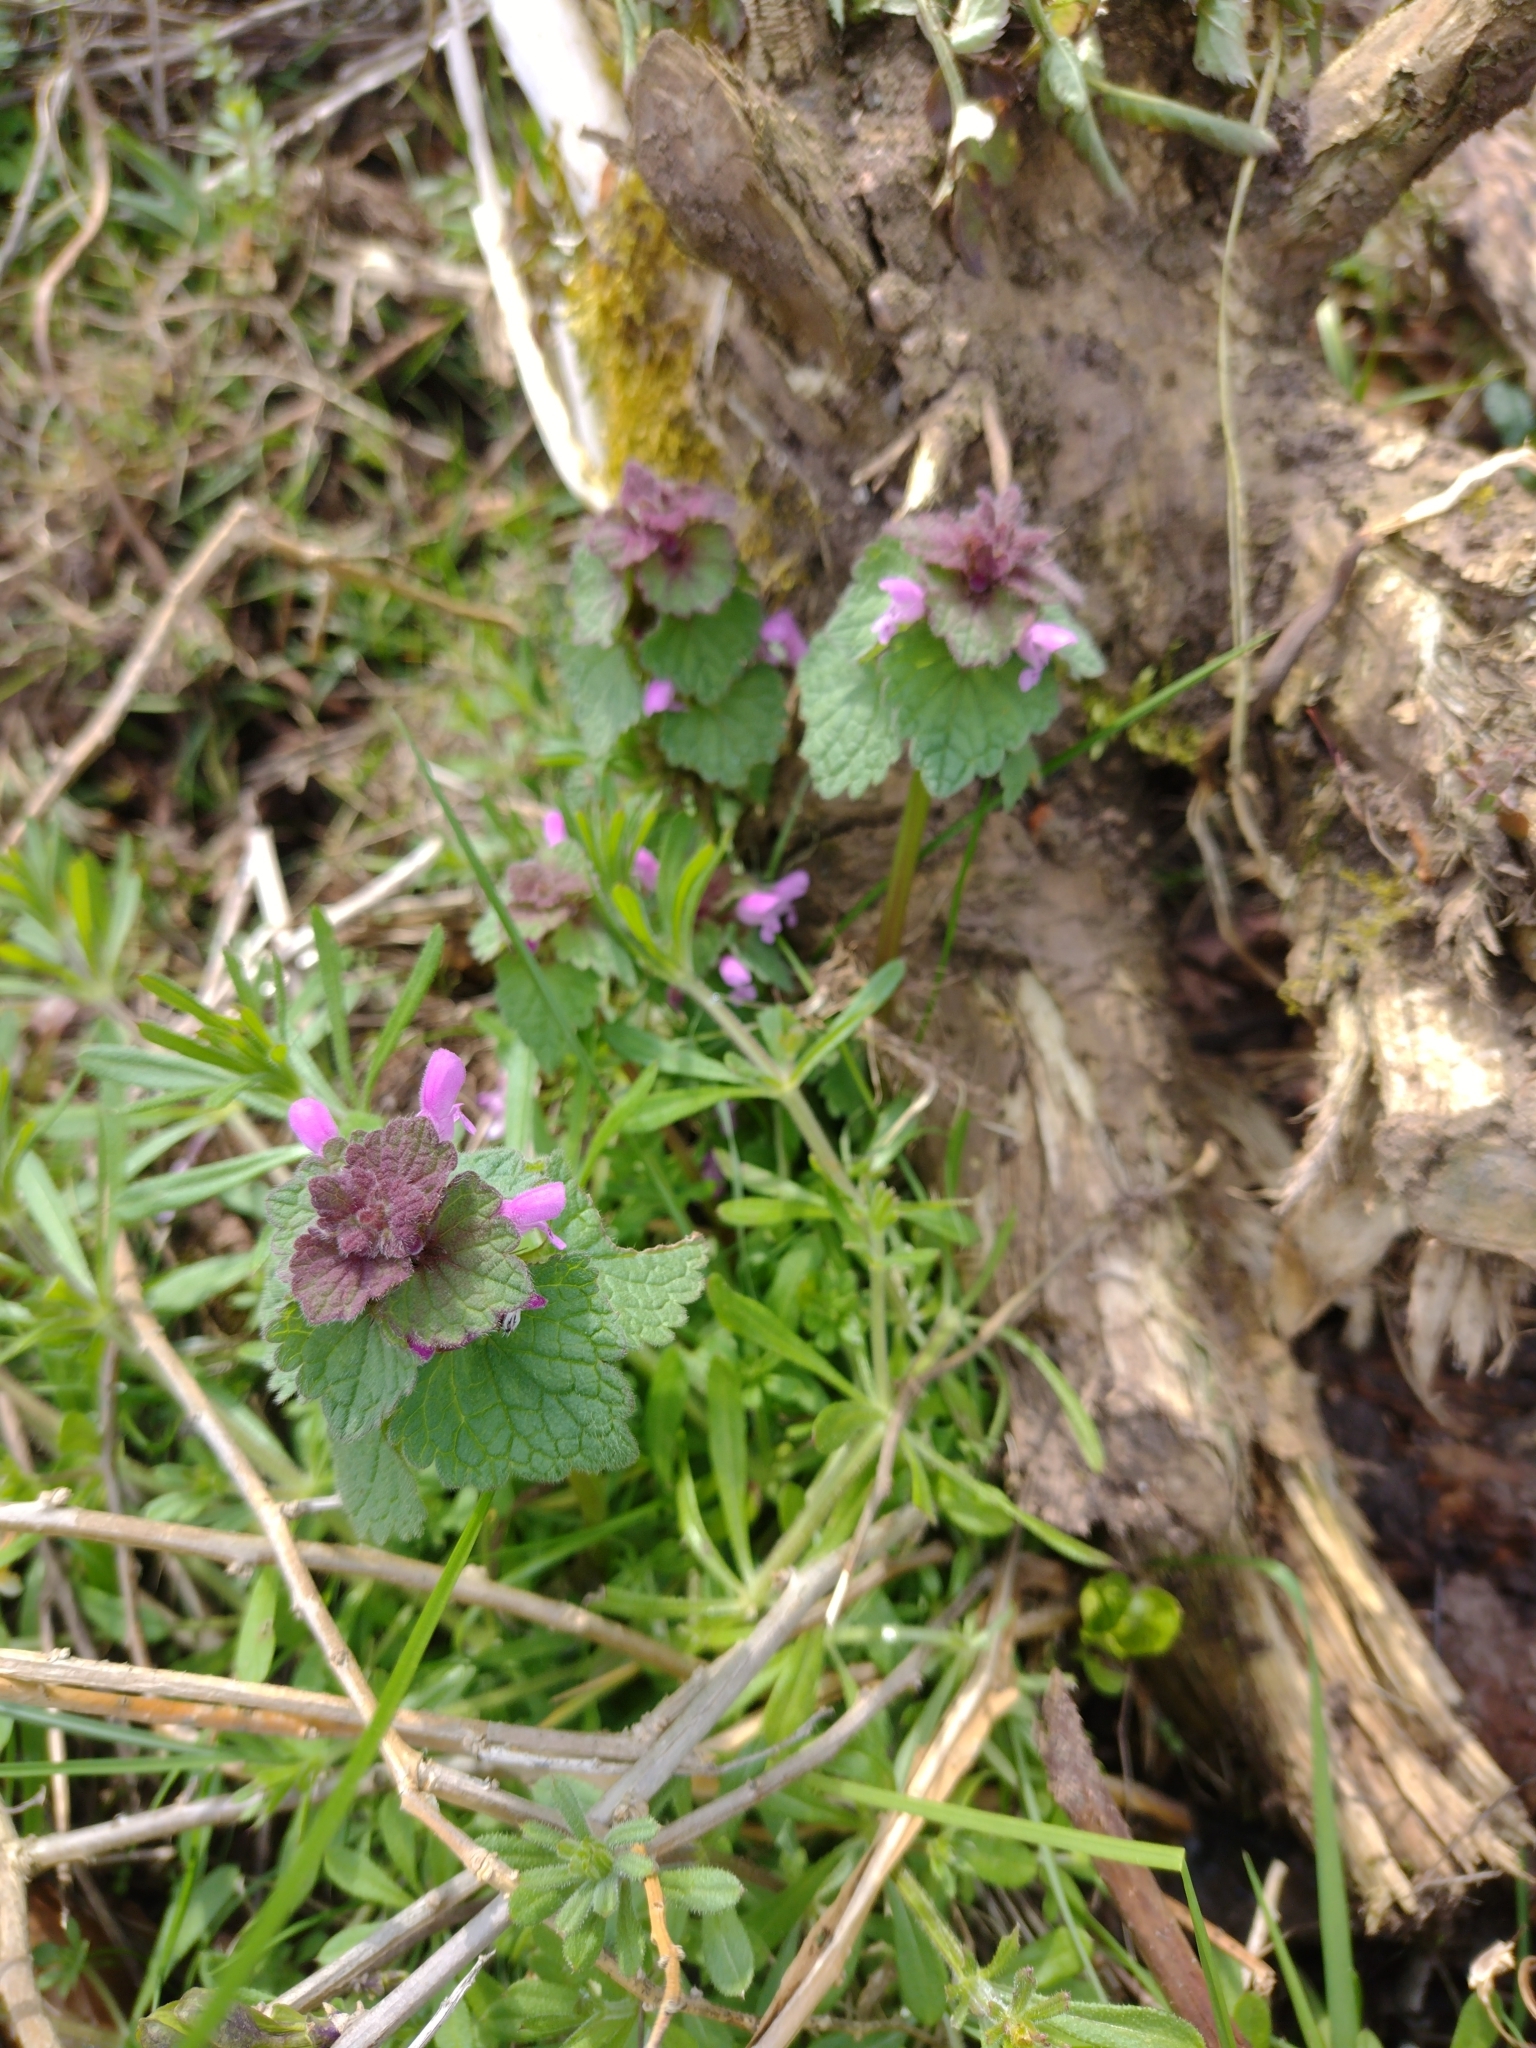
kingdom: Plantae
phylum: Tracheophyta
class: Magnoliopsida
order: Lamiales
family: Lamiaceae
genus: Lamium
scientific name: Lamium purpureum
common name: Red dead-nettle
